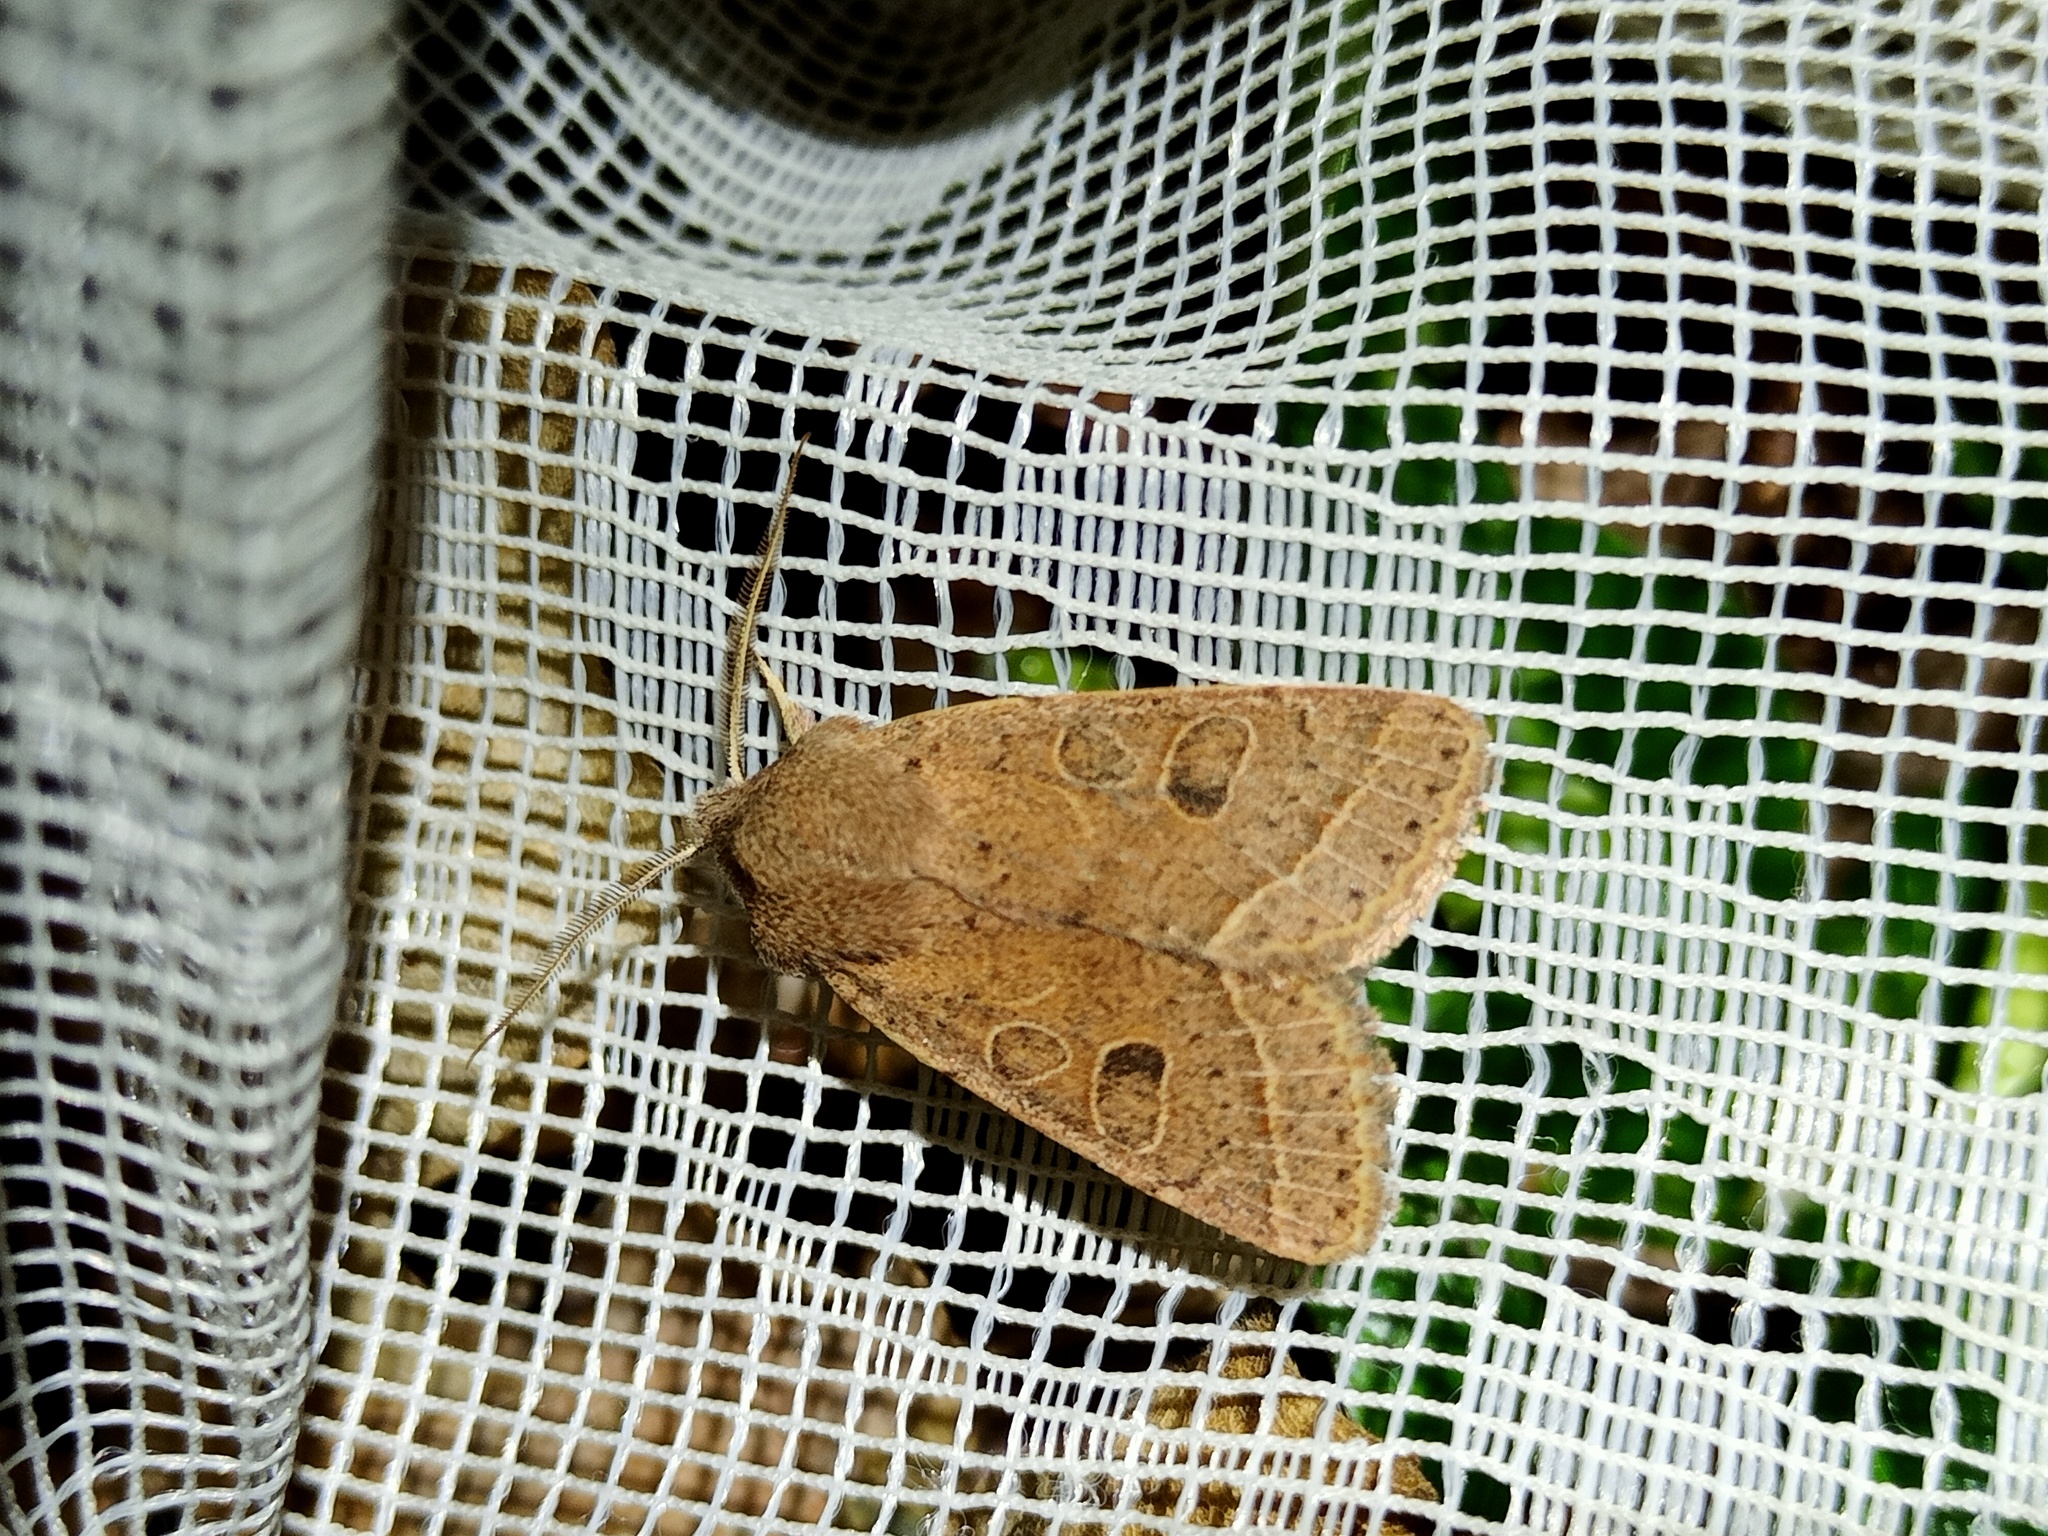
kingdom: Animalia
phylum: Arthropoda
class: Insecta
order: Lepidoptera
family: Noctuidae
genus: Orthosia
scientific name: Orthosia cerasi
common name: Common quaker
